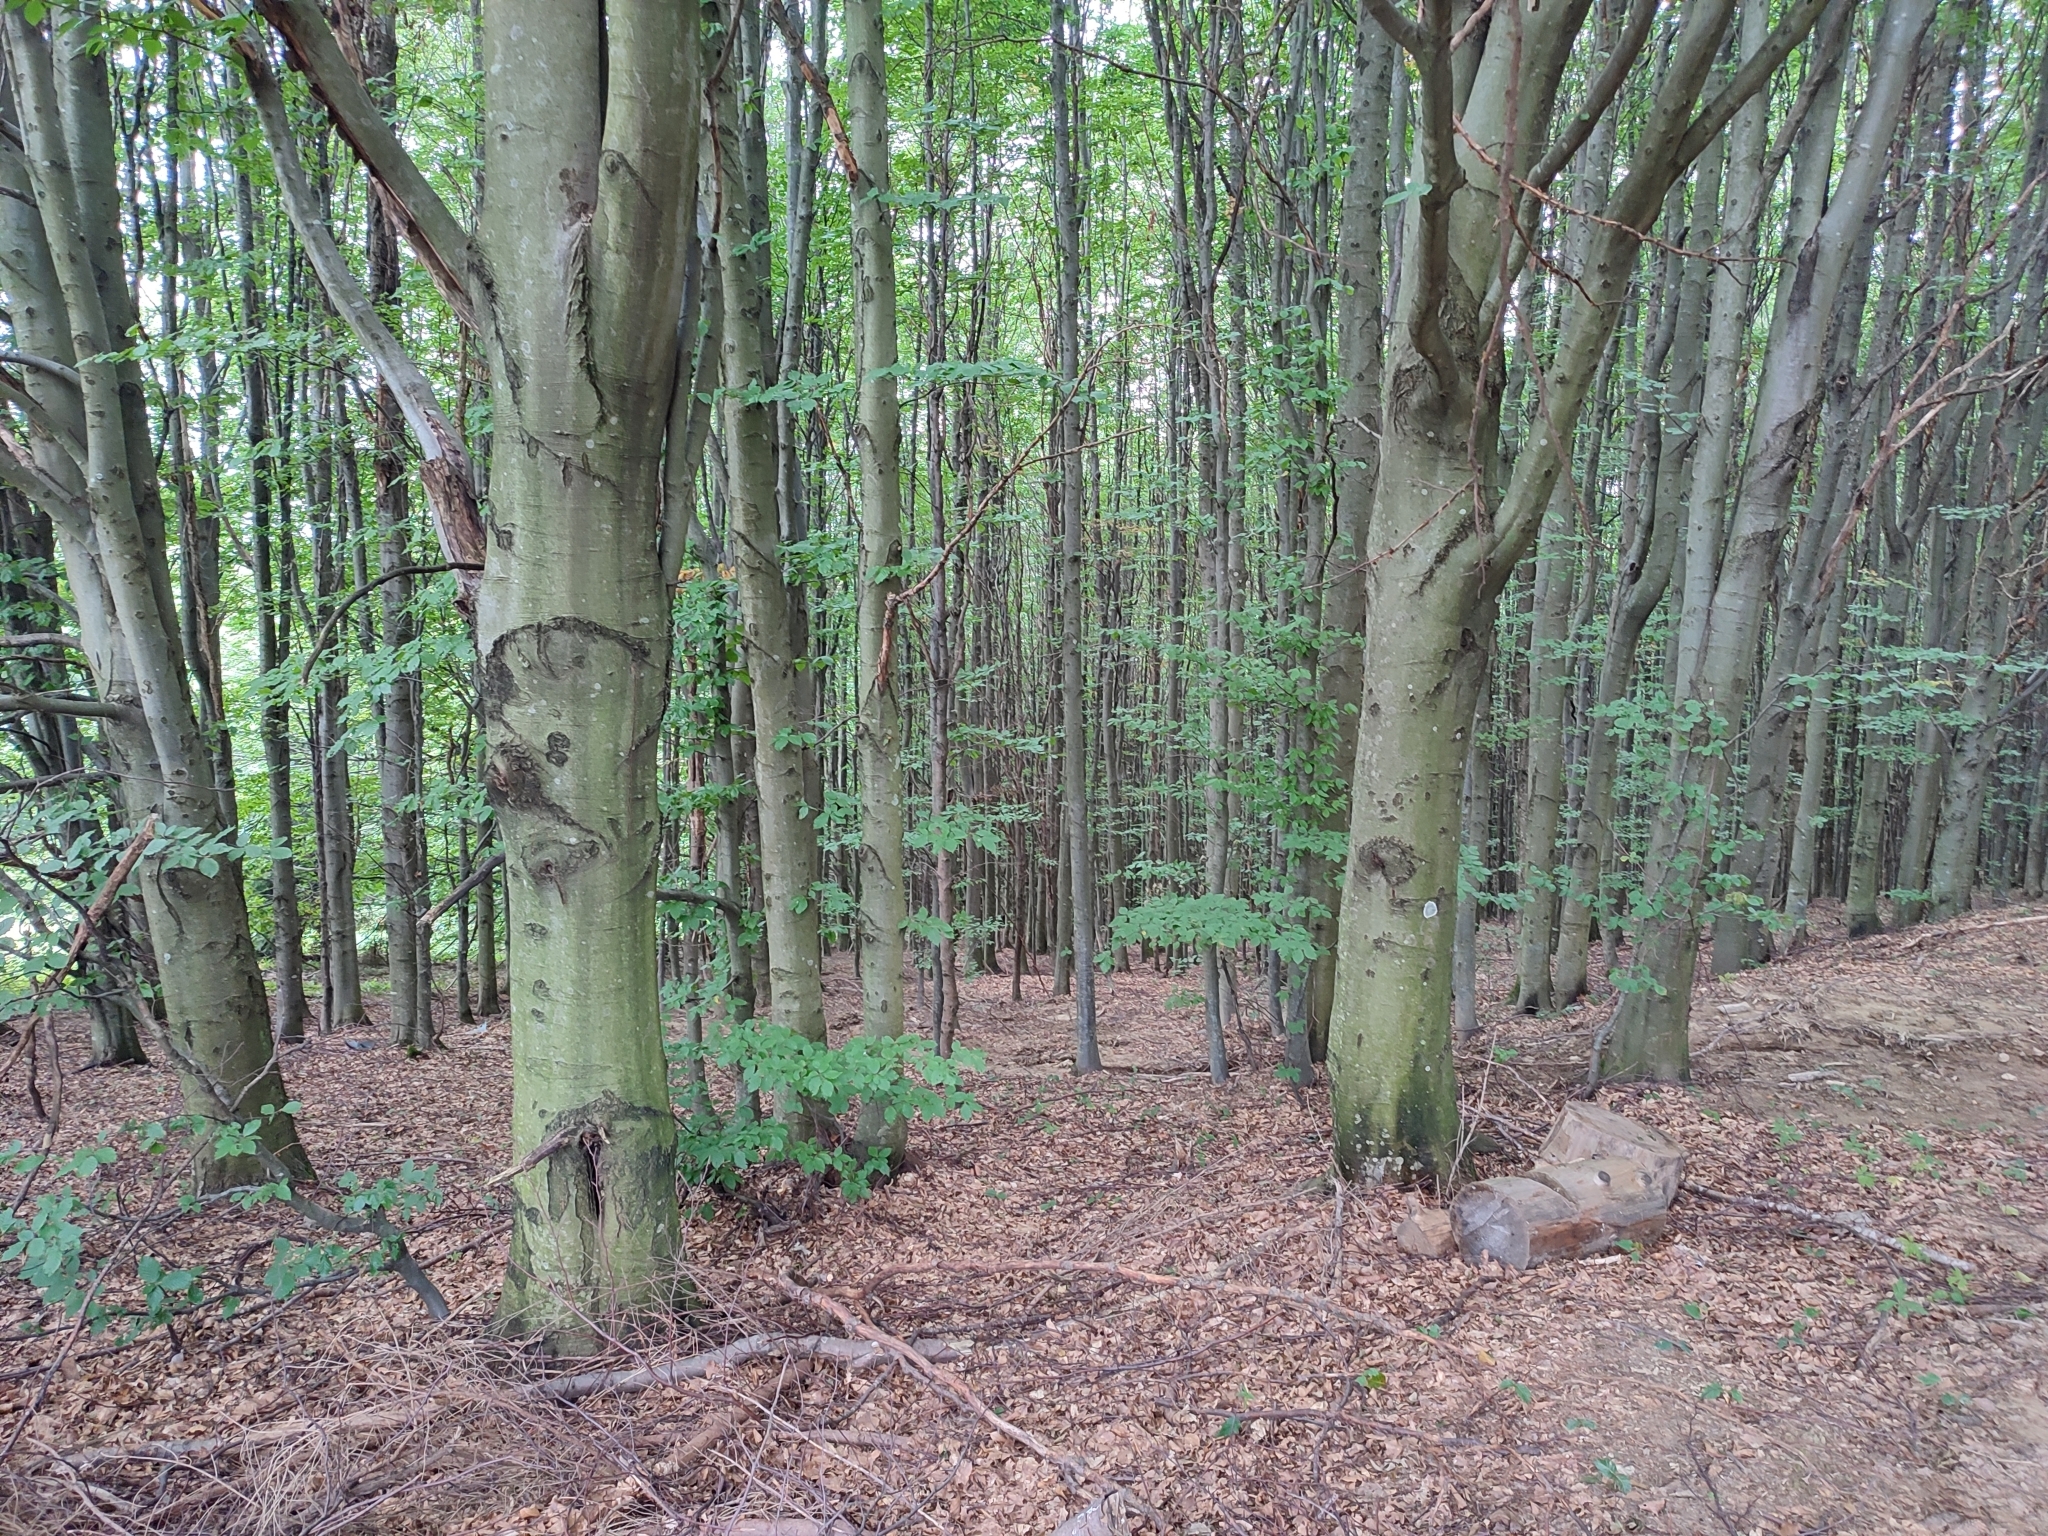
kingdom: Plantae
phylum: Tracheophyta
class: Magnoliopsida
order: Fagales
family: Fagaceae
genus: Fagus
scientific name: Fagus sylvatica
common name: Beech
